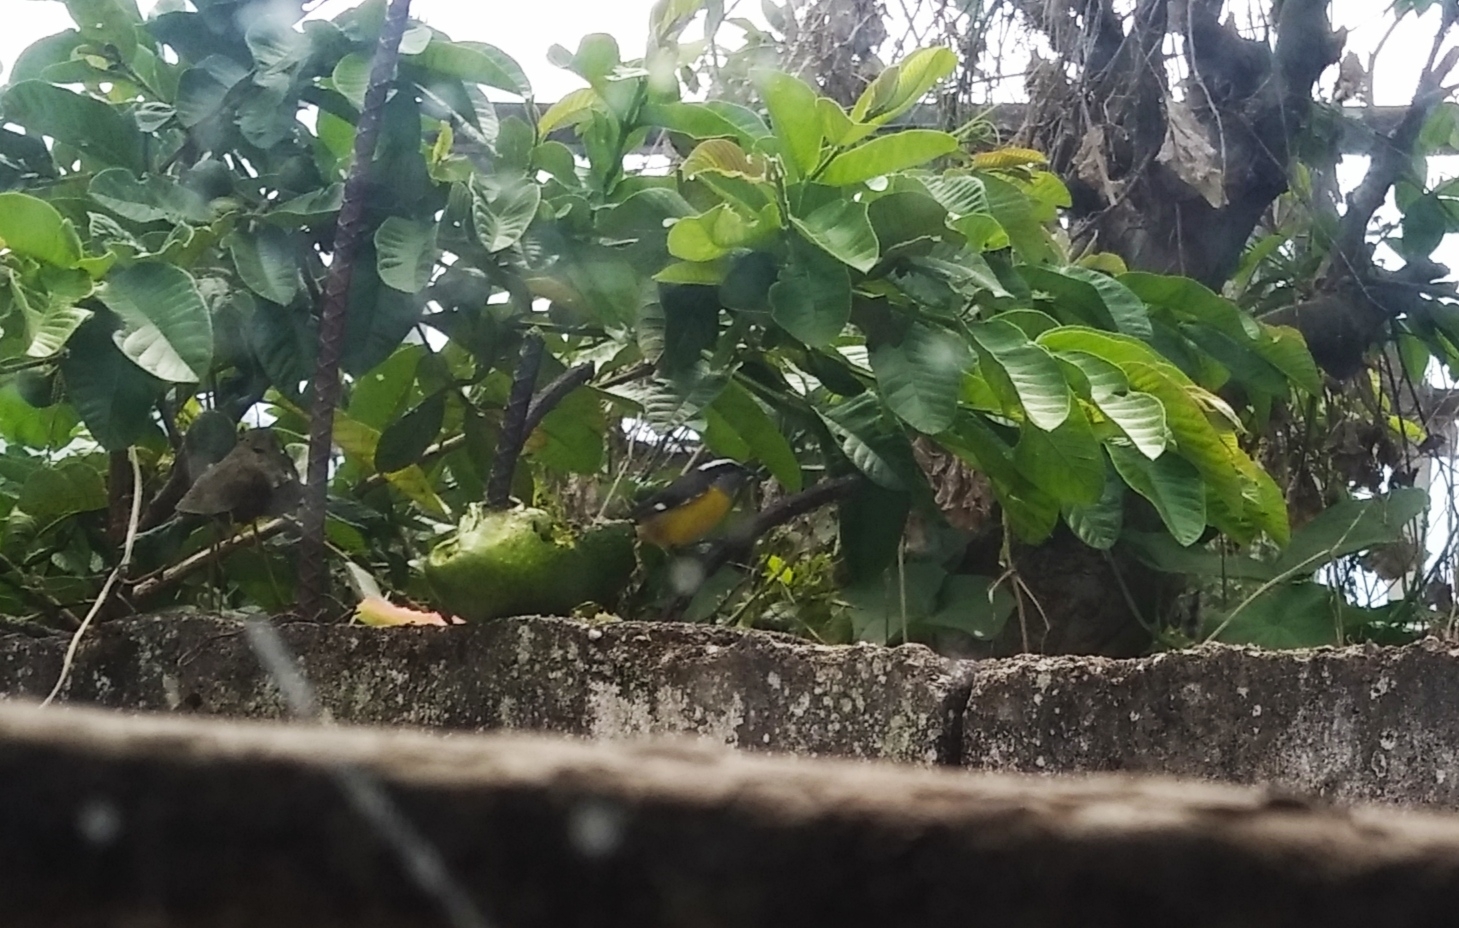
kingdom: Animalia
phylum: Chordata
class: Aves
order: Passeriformes
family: Thraupidae
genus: Coereba
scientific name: Coereba flaveola
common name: Bananaquit
